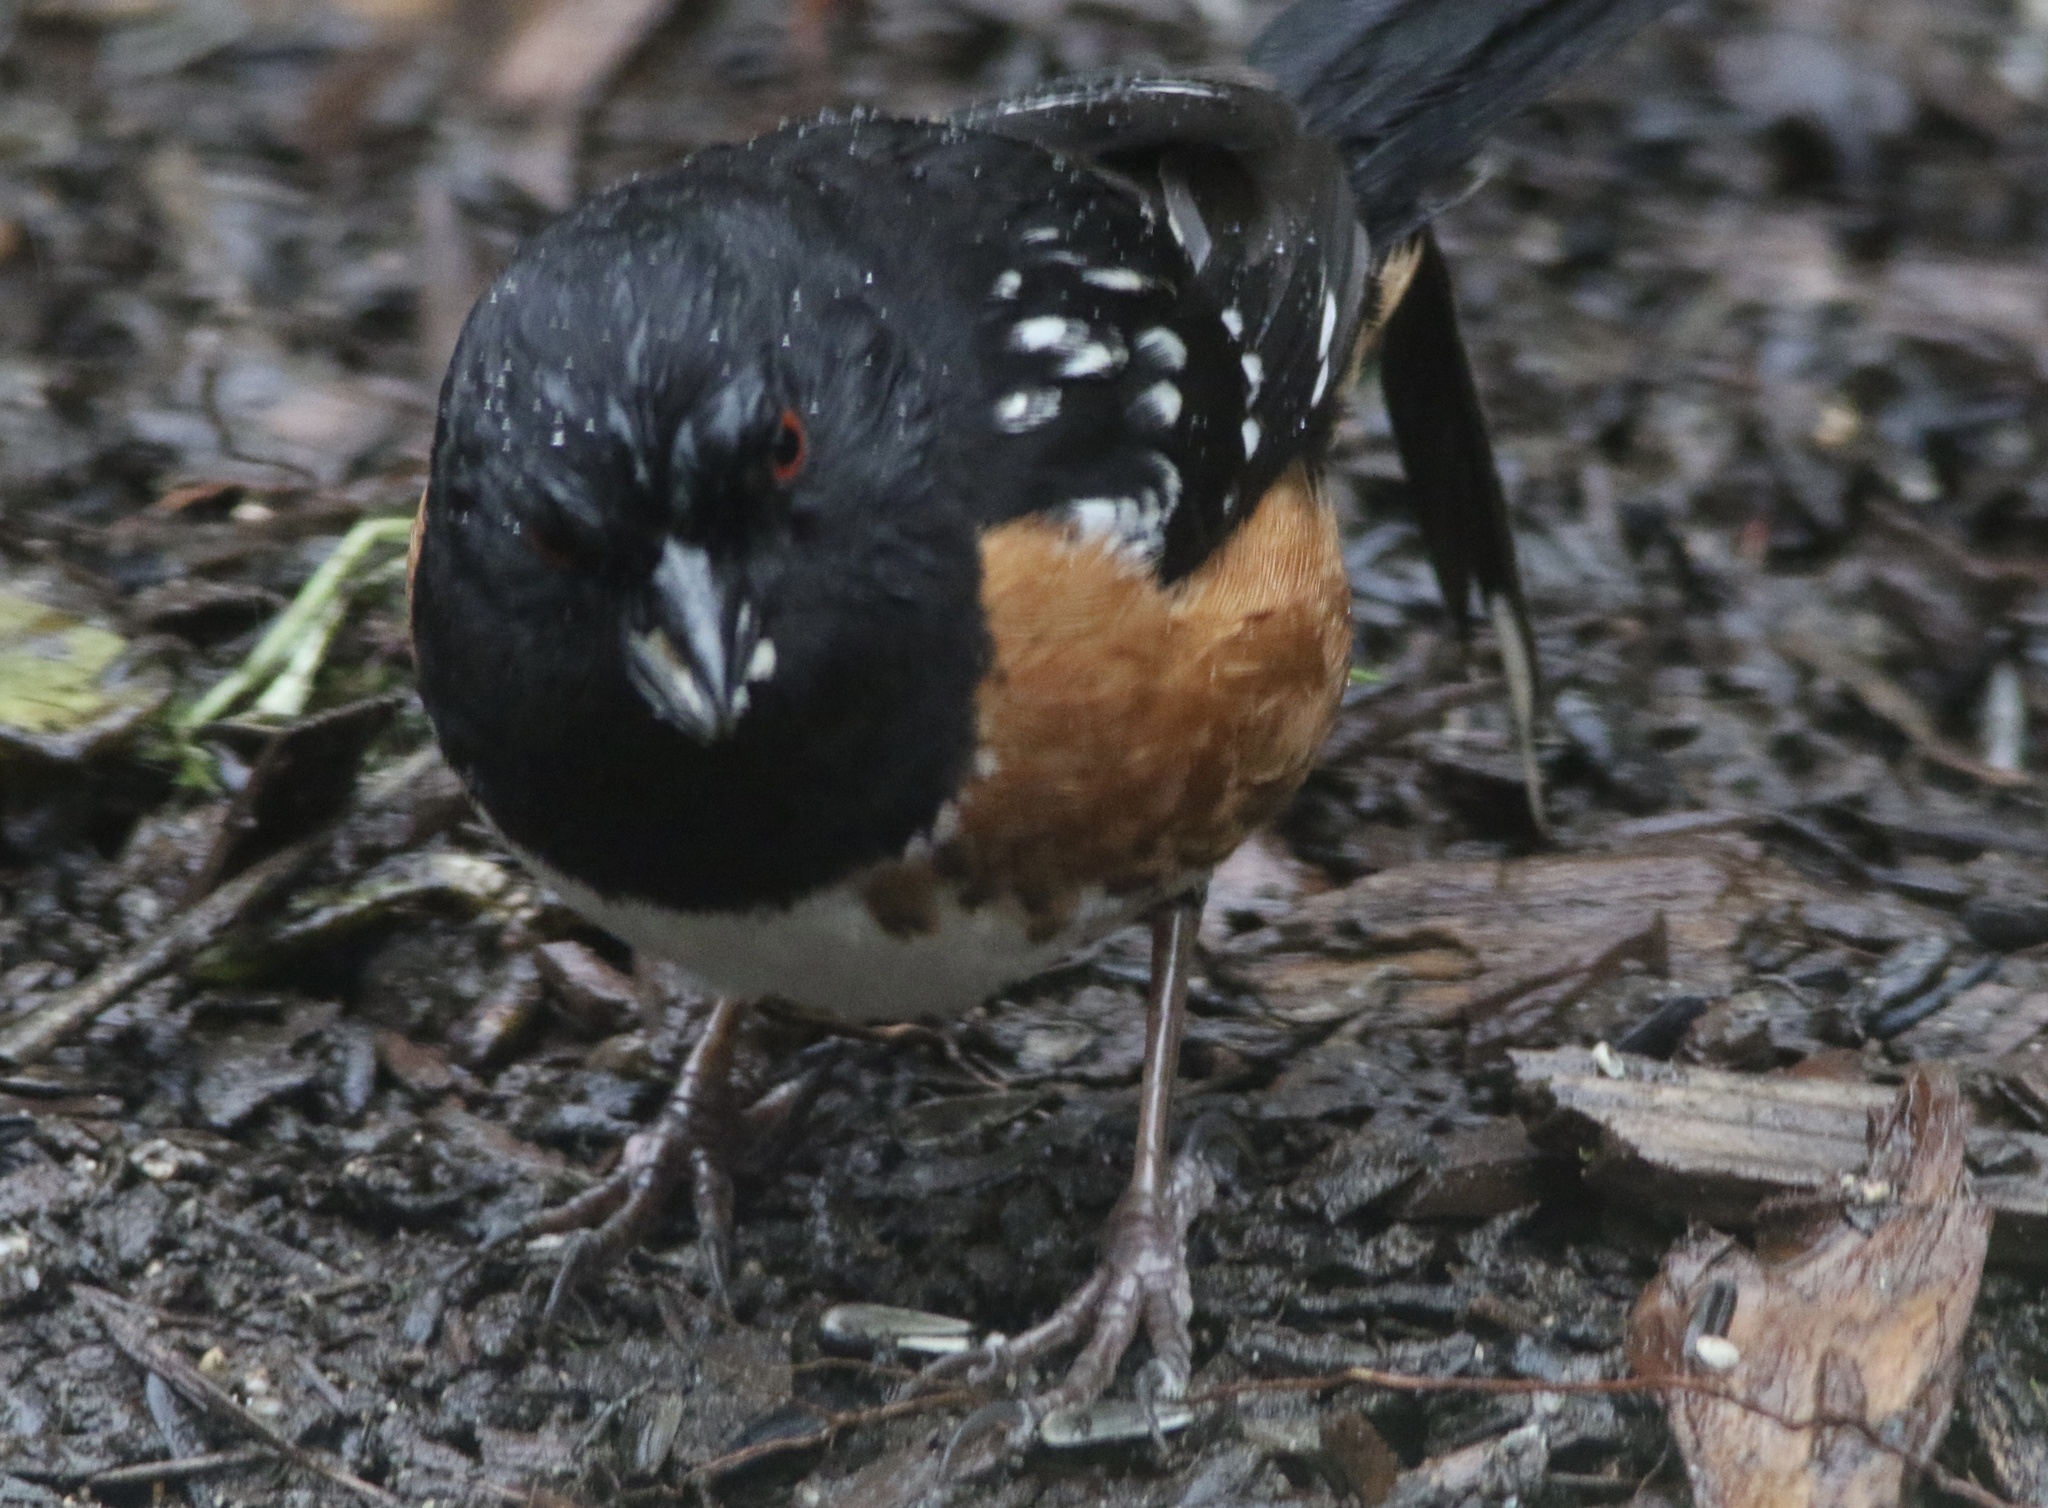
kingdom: Animalia
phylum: Chordata
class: Aves
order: Passeriformes
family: Passerellidae
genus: Pipilo
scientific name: Pipilo maculatus
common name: Spotted towhee
